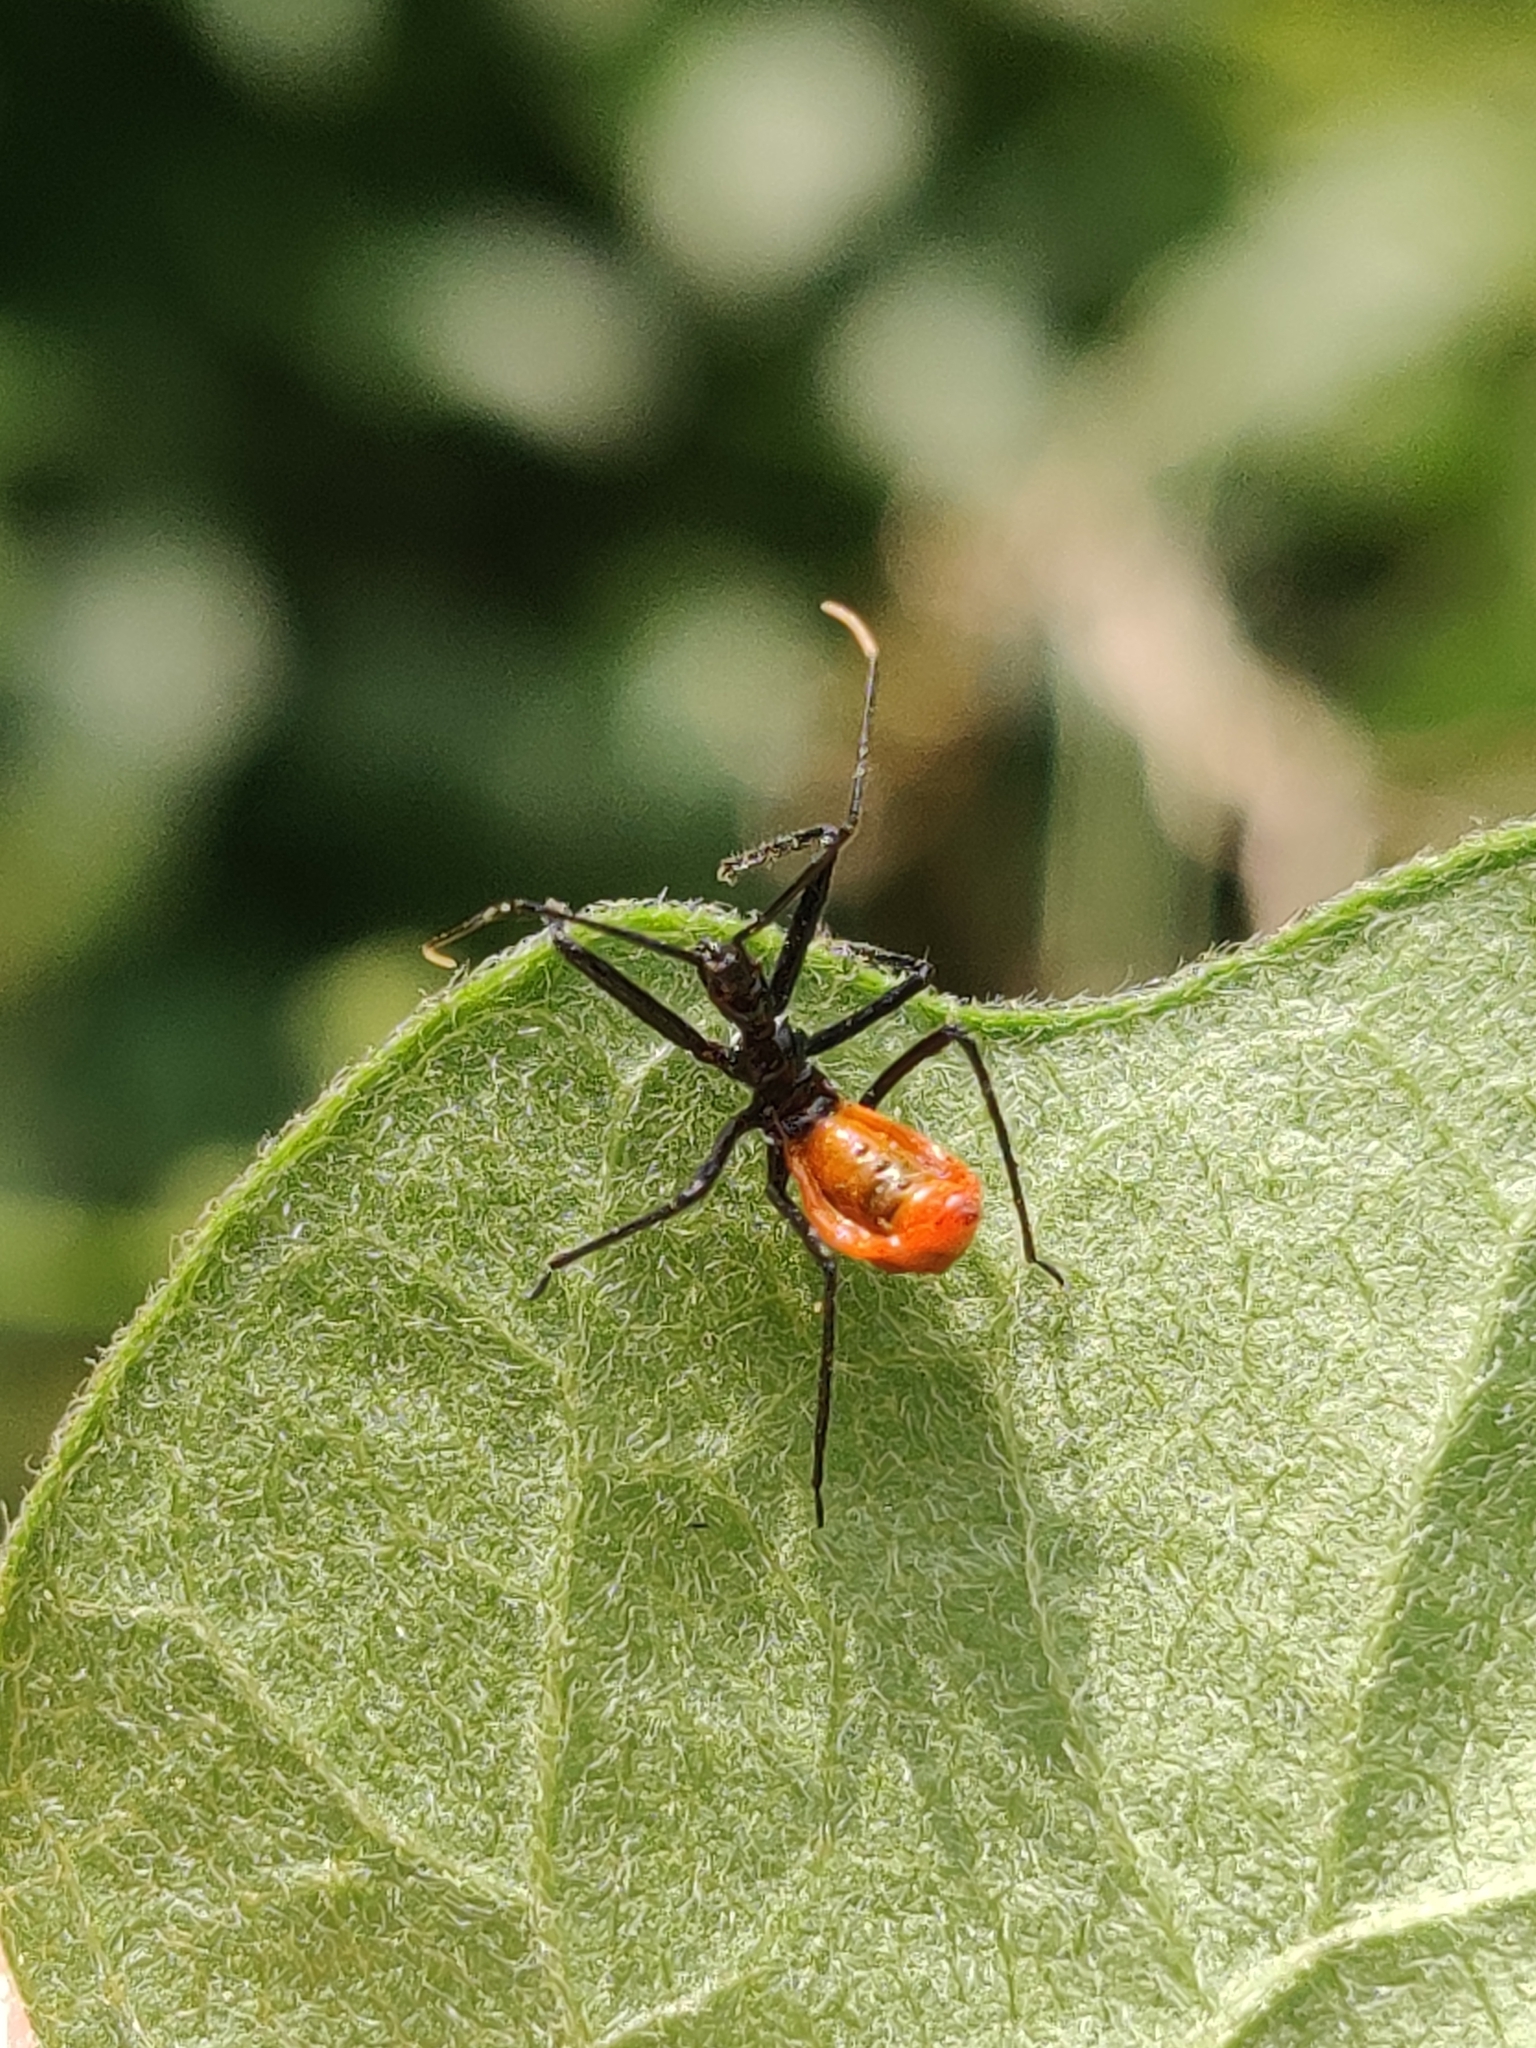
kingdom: Animalia
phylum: Arthropoda
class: Insecta
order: Hemiptera
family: Reduviidae
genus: Arilus
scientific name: Arilus cristatus
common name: North american wheel bug
